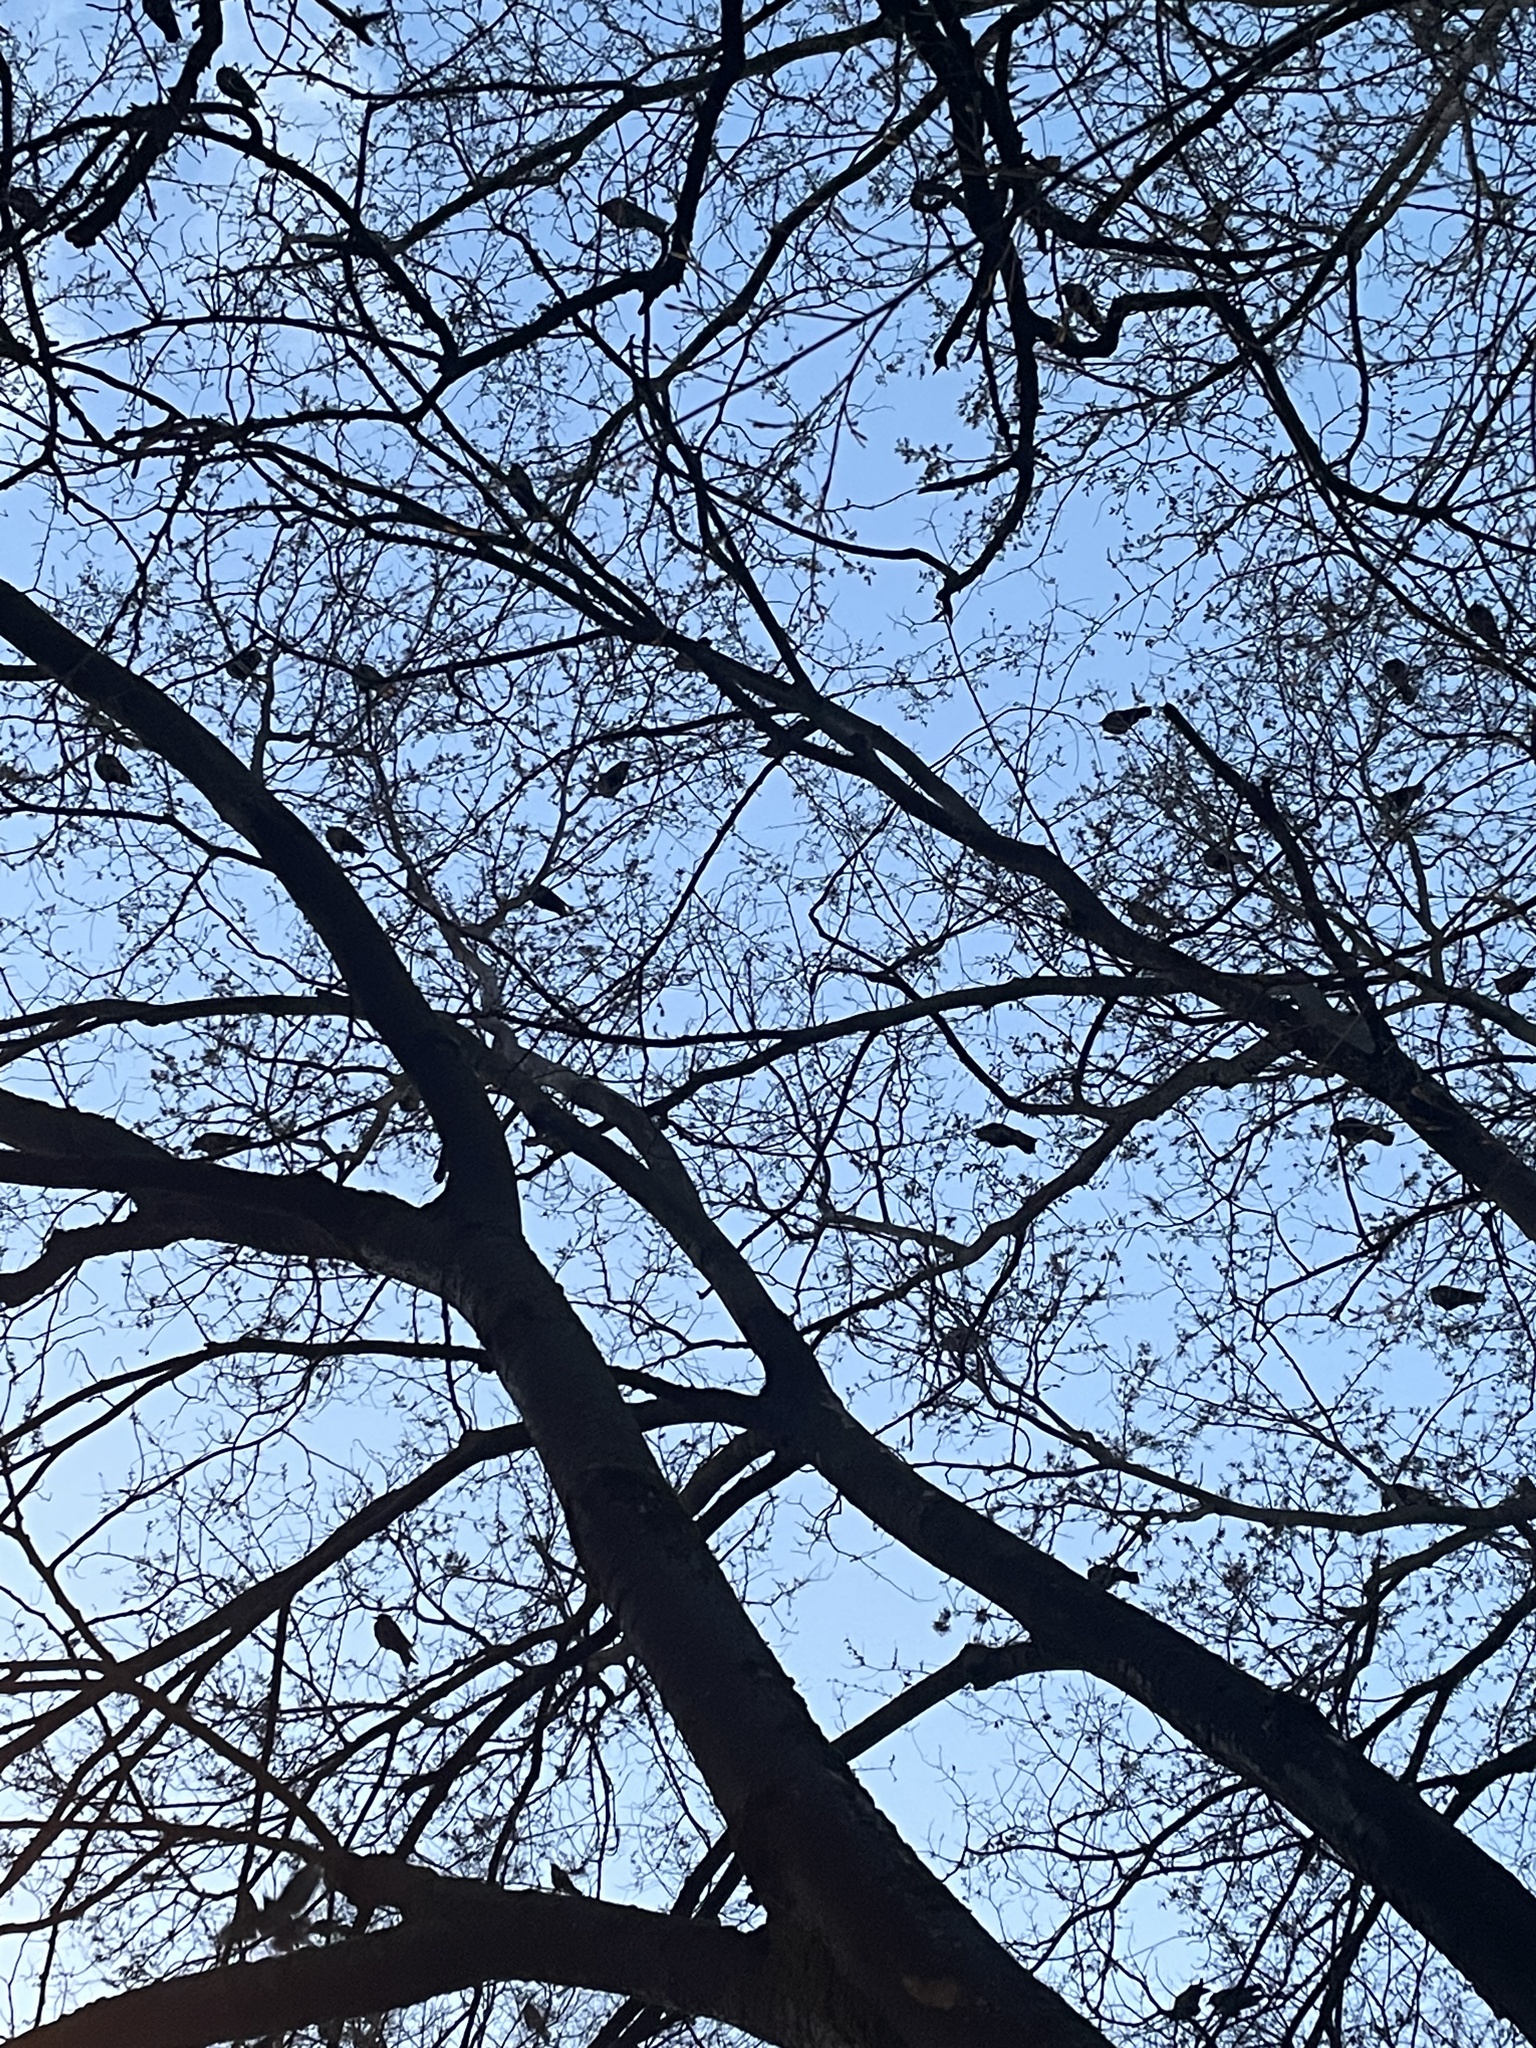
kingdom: Animalia
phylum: Chordata
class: Aves
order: Passeriformes
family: Corvidae
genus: Corvus
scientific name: Corvus brachyrhynchos
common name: American crow
